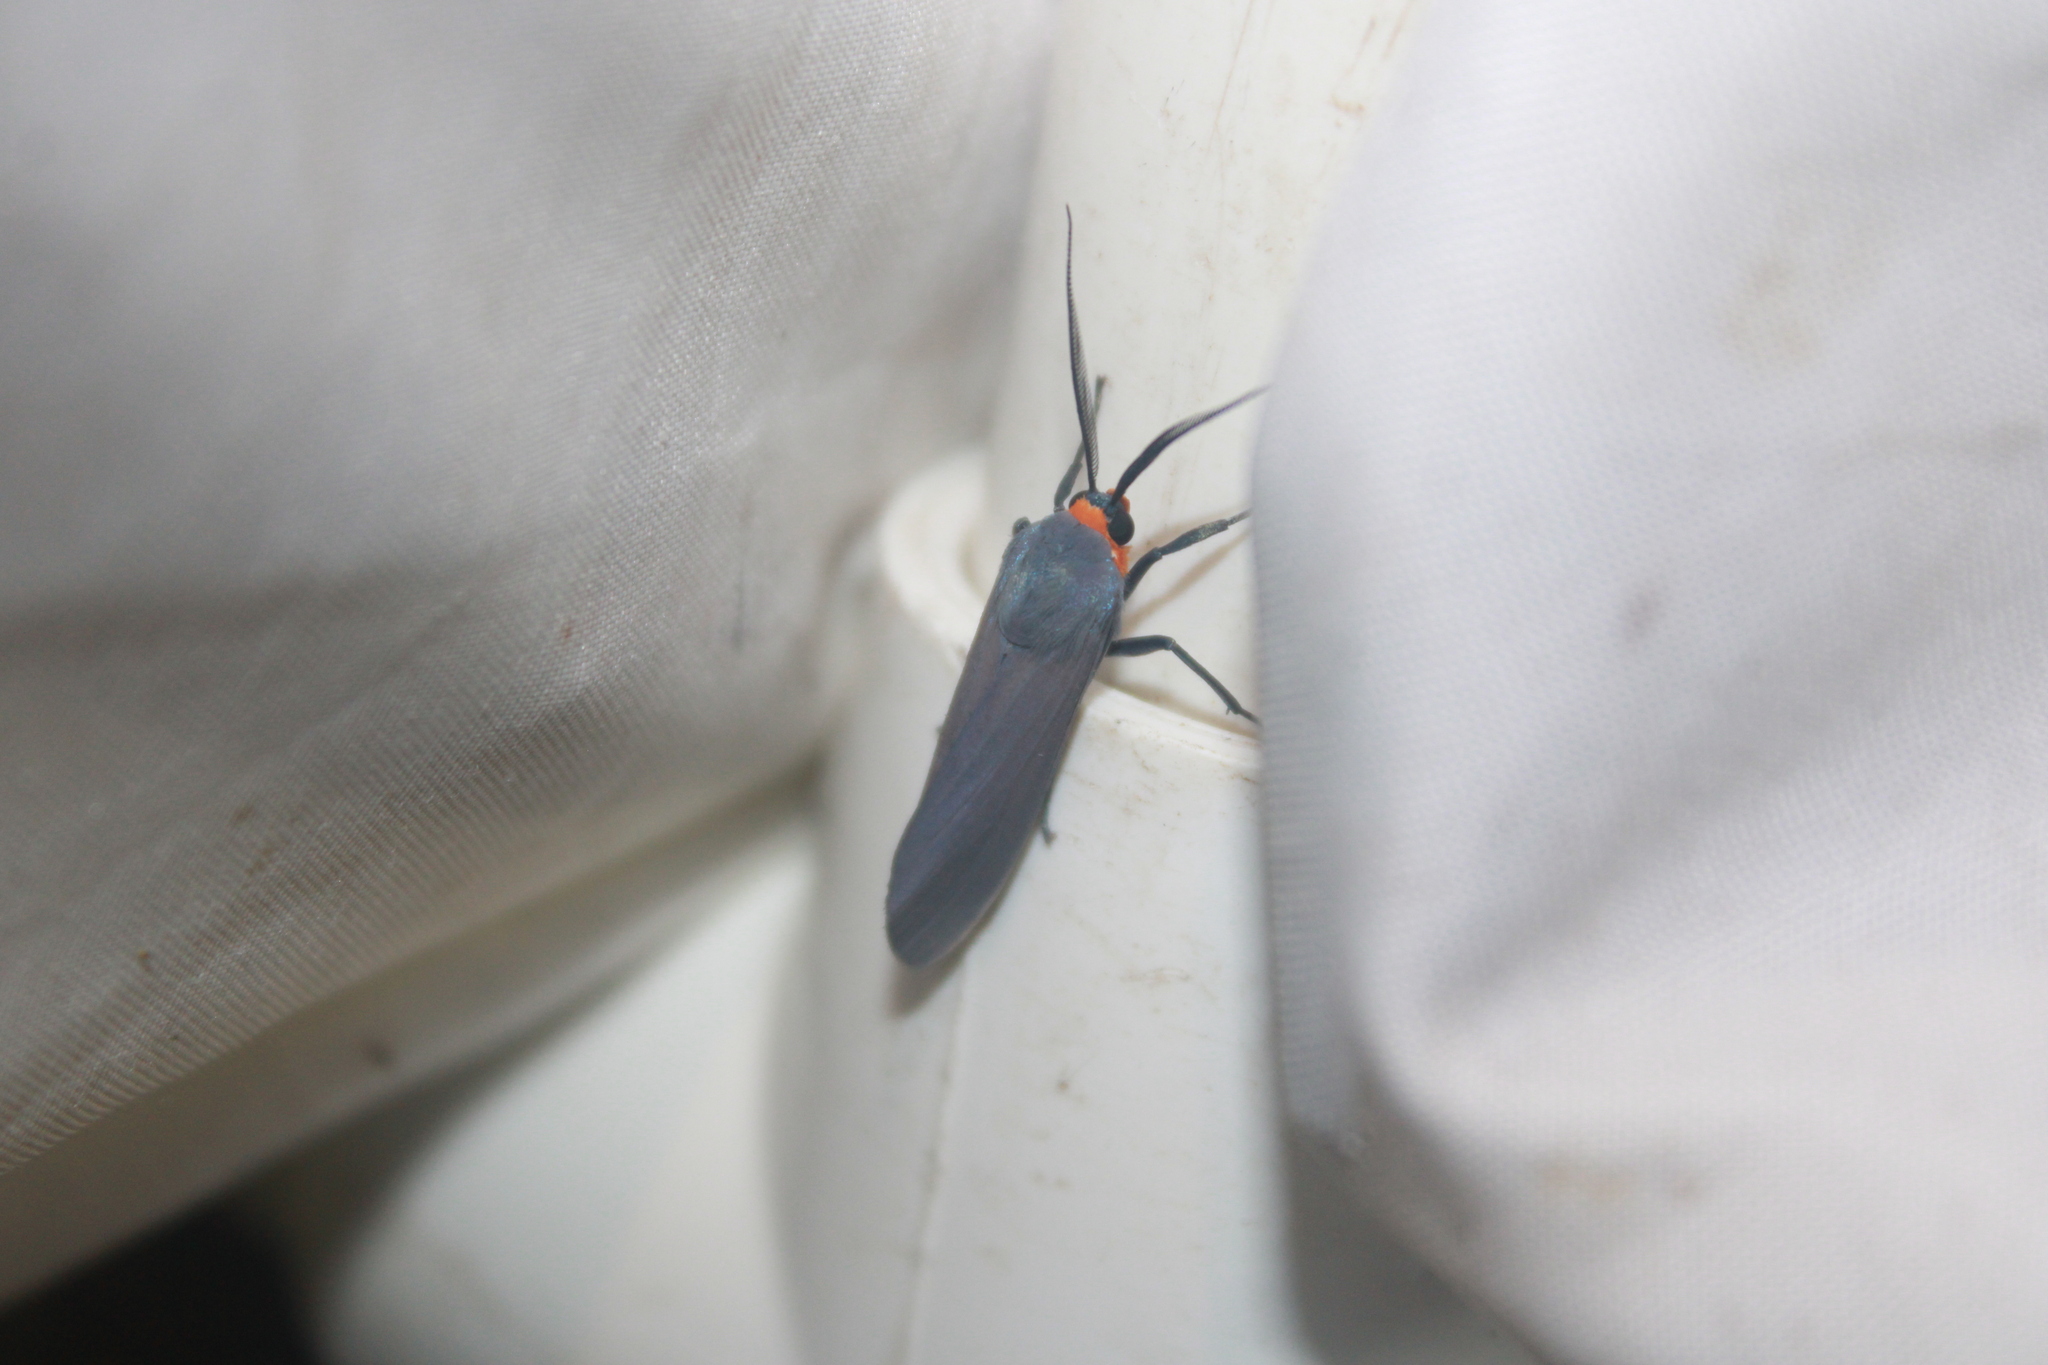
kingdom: Animalia
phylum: Arthropoda
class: Insecta
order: Lepidoptera
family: Erebidae
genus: Lymire
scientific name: Lymire edwardsii
